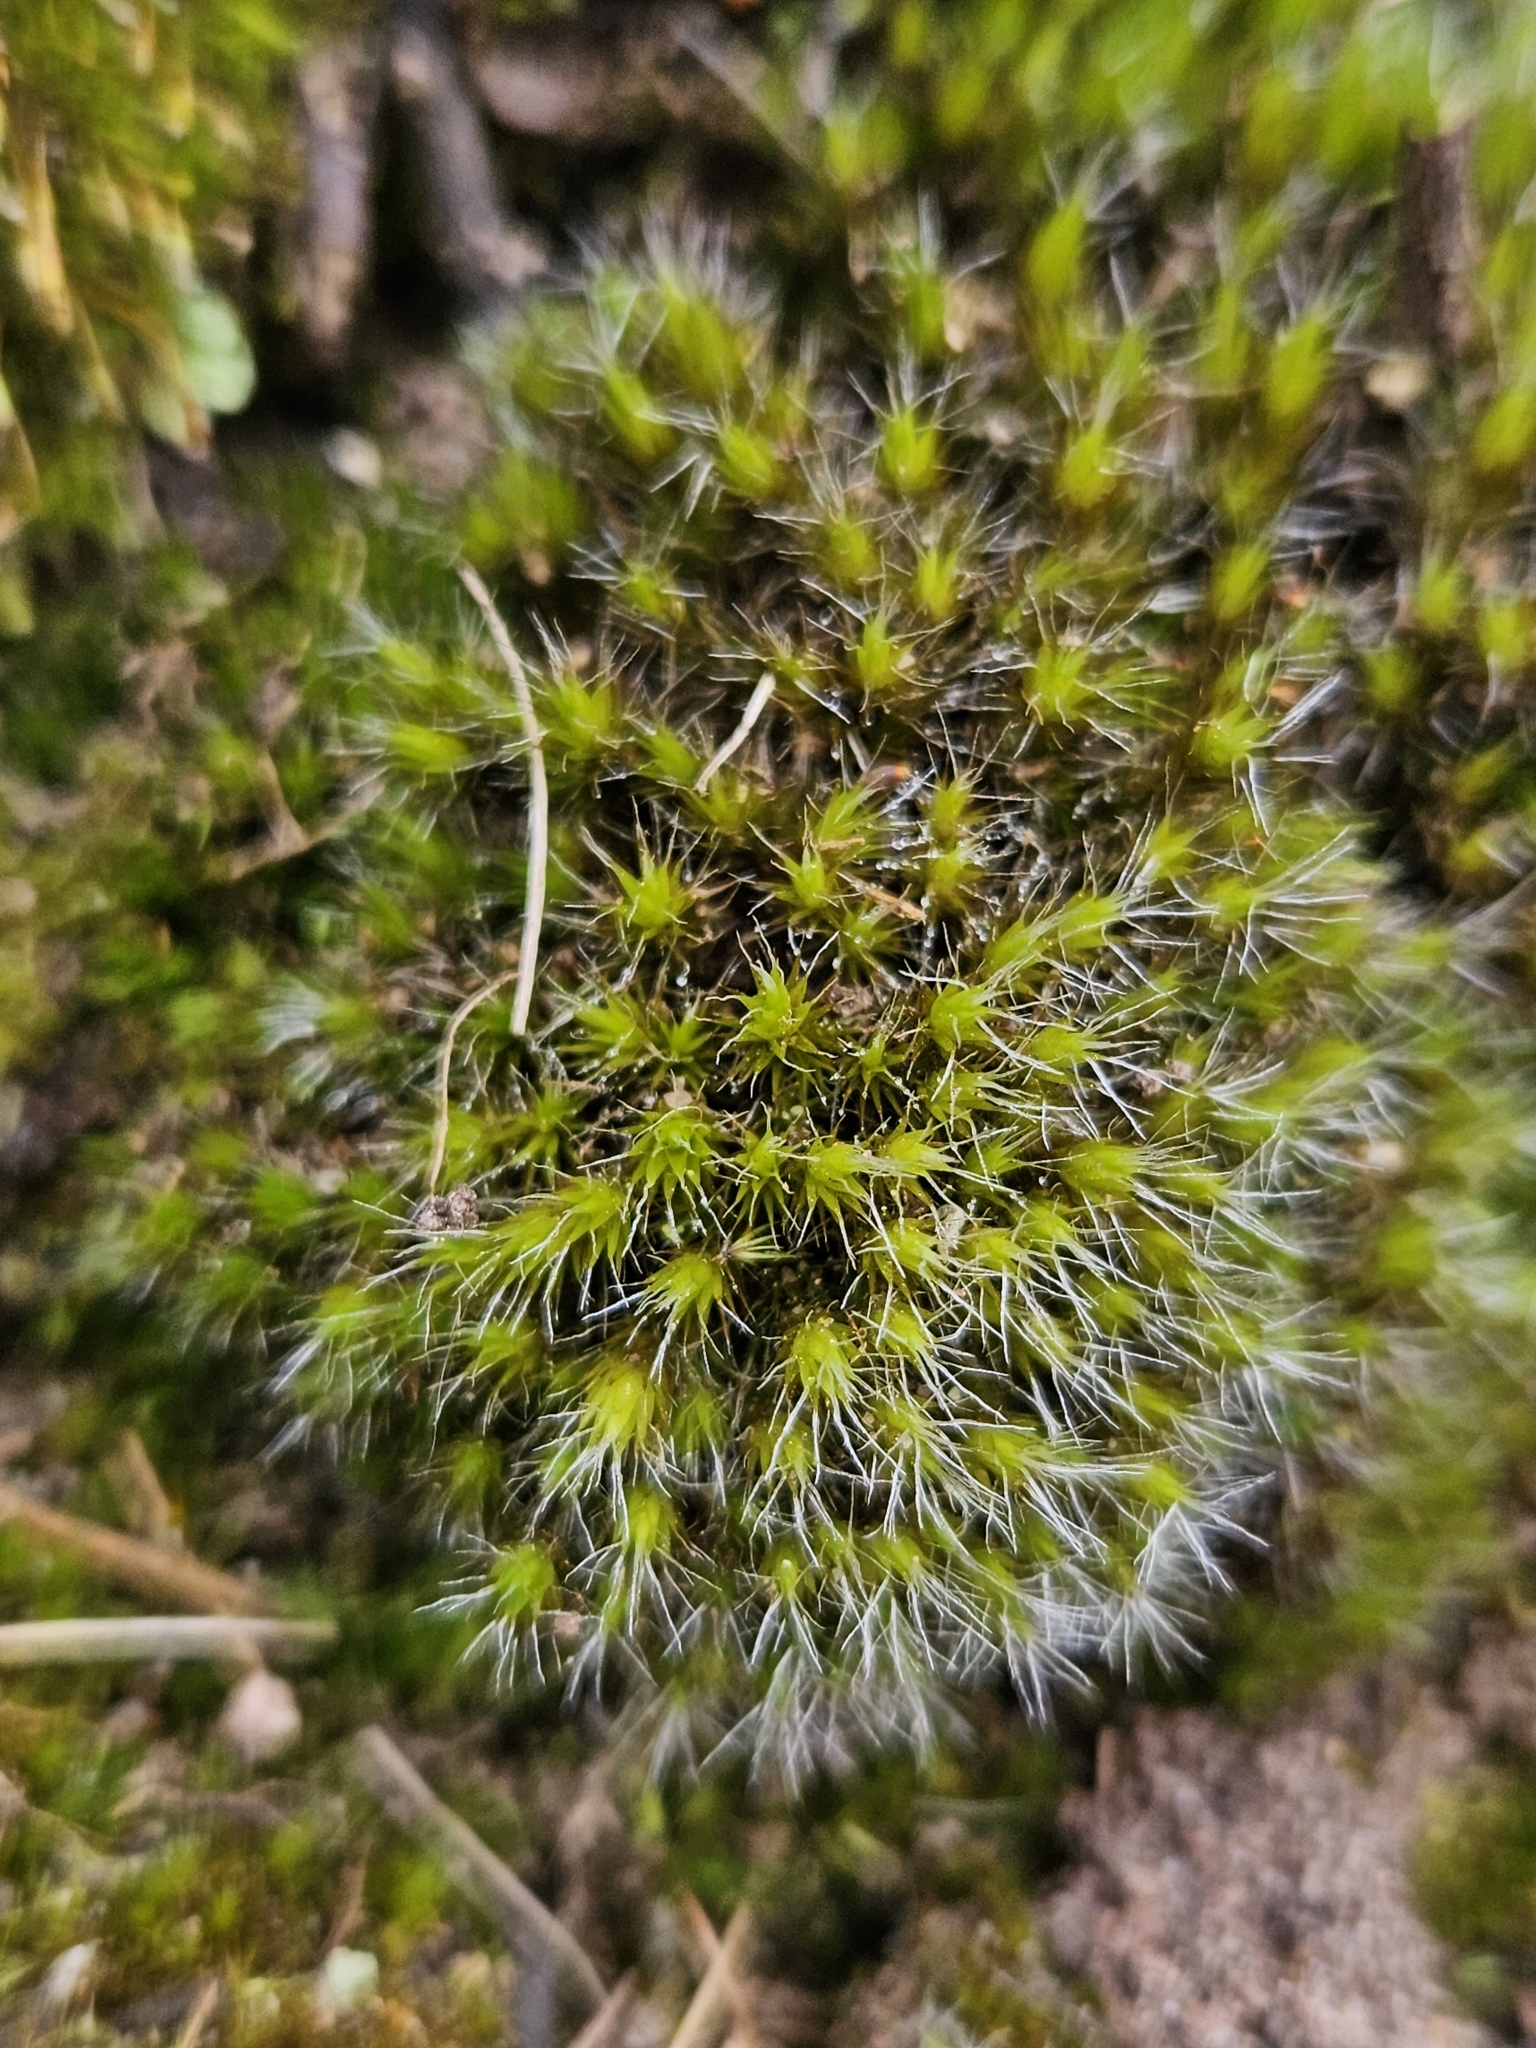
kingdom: Plantae
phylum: Bryophyta
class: Bryopsida
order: Dicranales
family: Leucobryaceae
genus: Campylopus
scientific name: Campylopus introflexus
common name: Heath star moss
